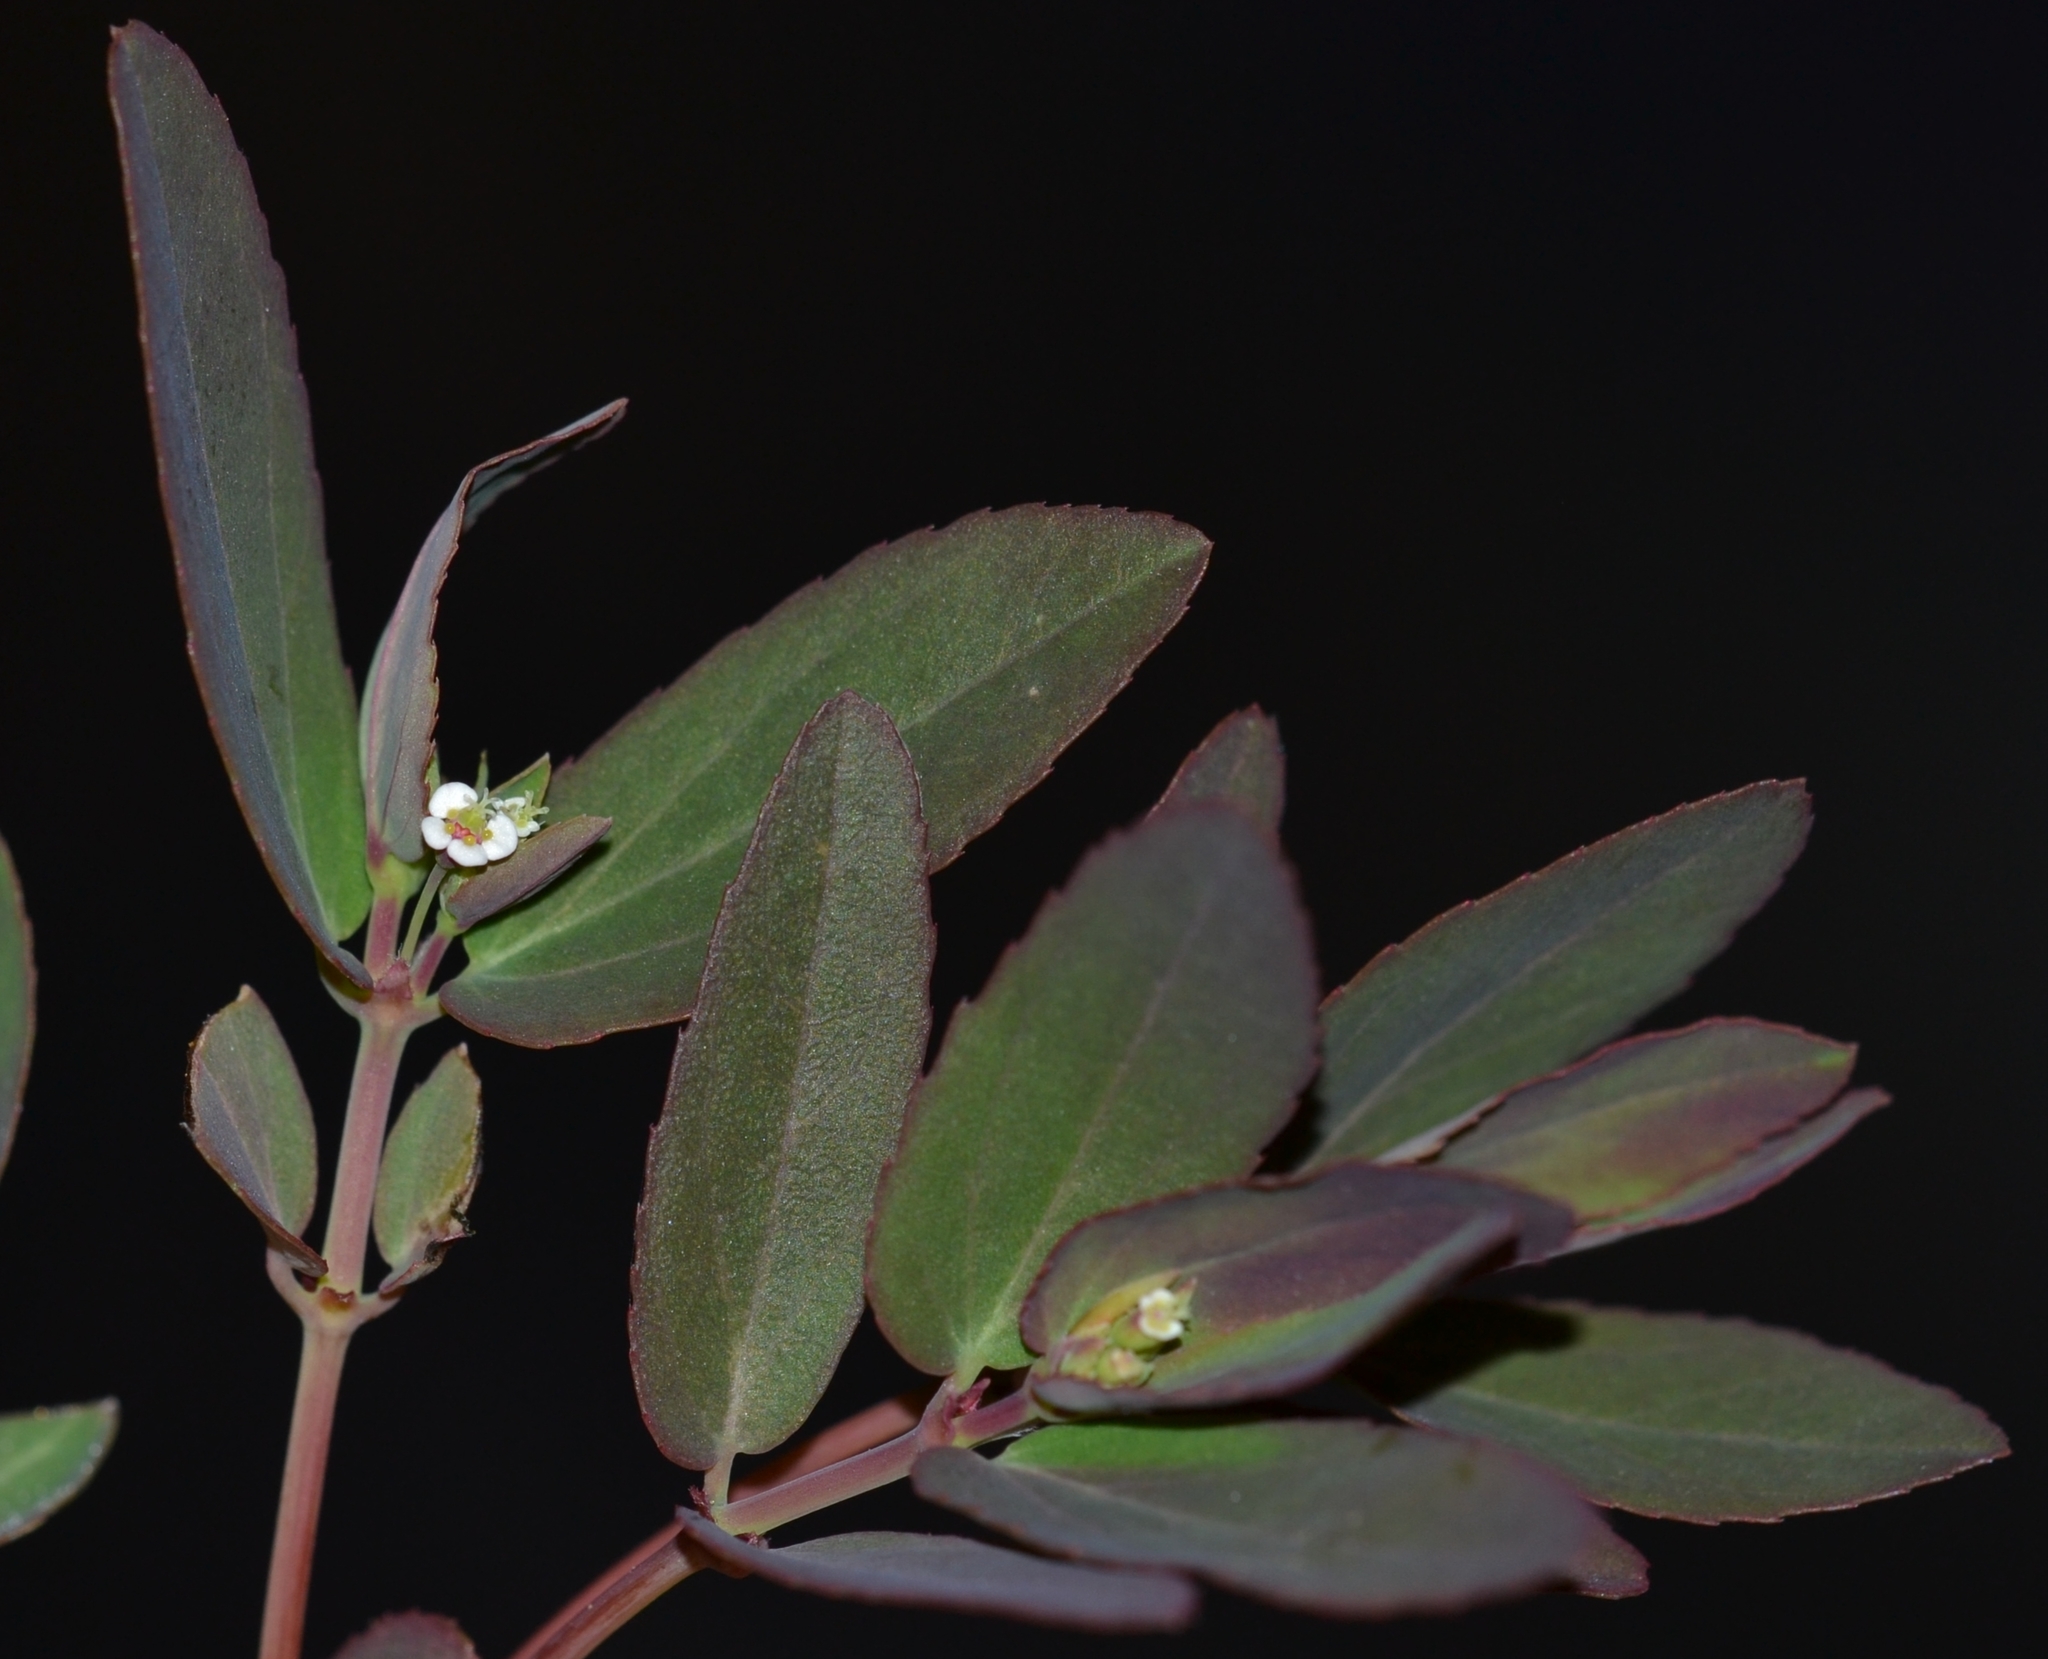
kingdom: Plantae
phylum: Tracheophyta
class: Magnoliopsida
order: Malpighiales
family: Euphorbiaceae
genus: Euphorbia
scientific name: Euphorbia hypericifolia
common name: Graceful sandmat
